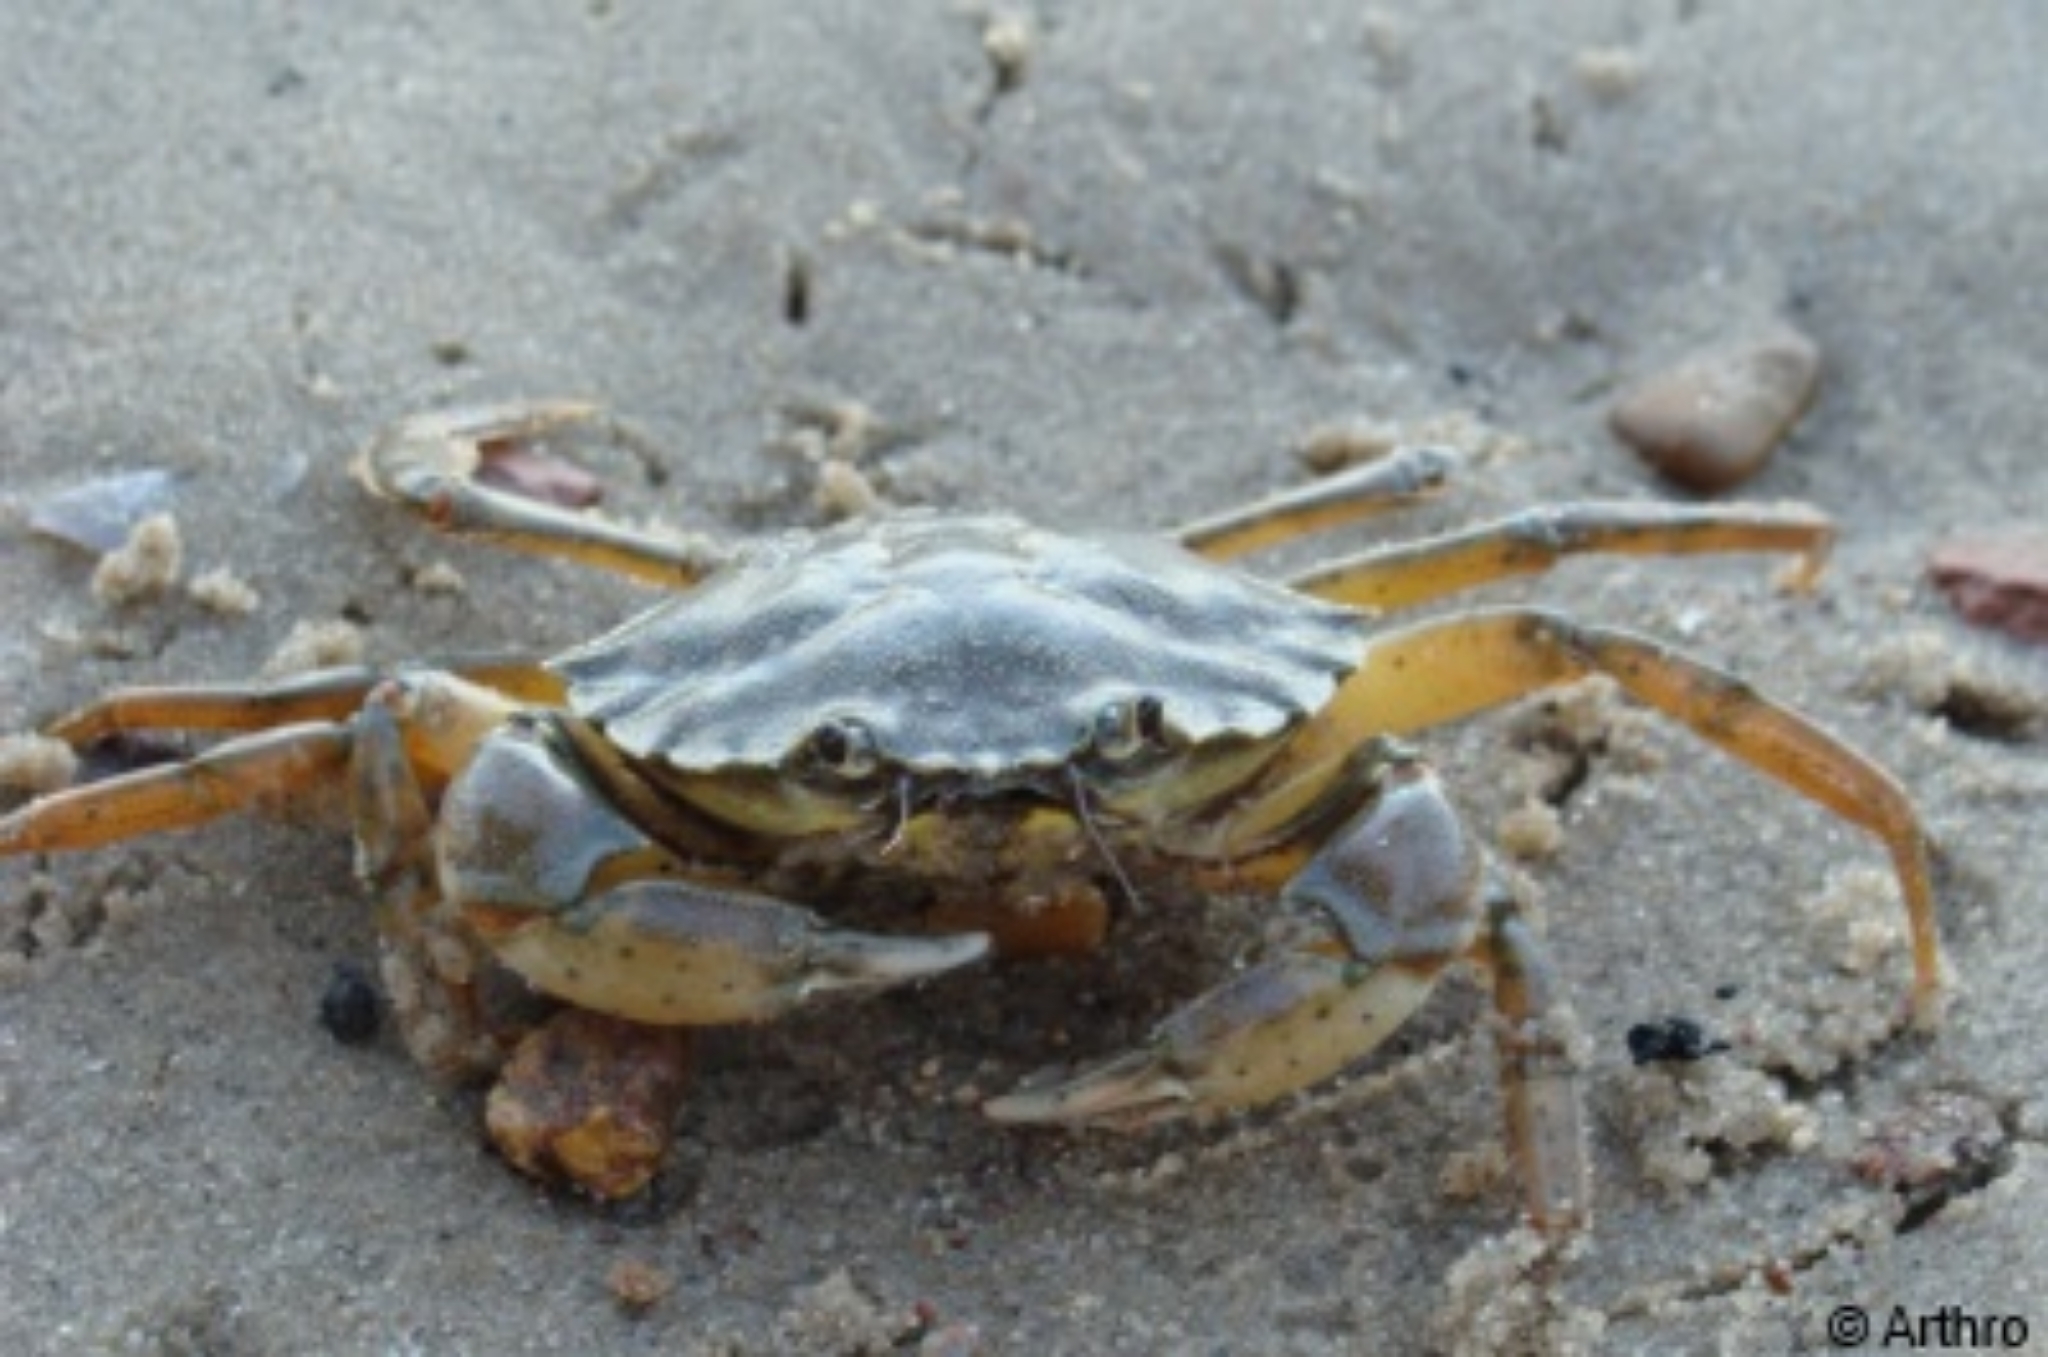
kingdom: Animalia
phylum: Arthropoda
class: Malacostraca
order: Decapoda
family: Carcinidae
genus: Carcinus
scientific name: Carcinus maenas
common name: European green crab
